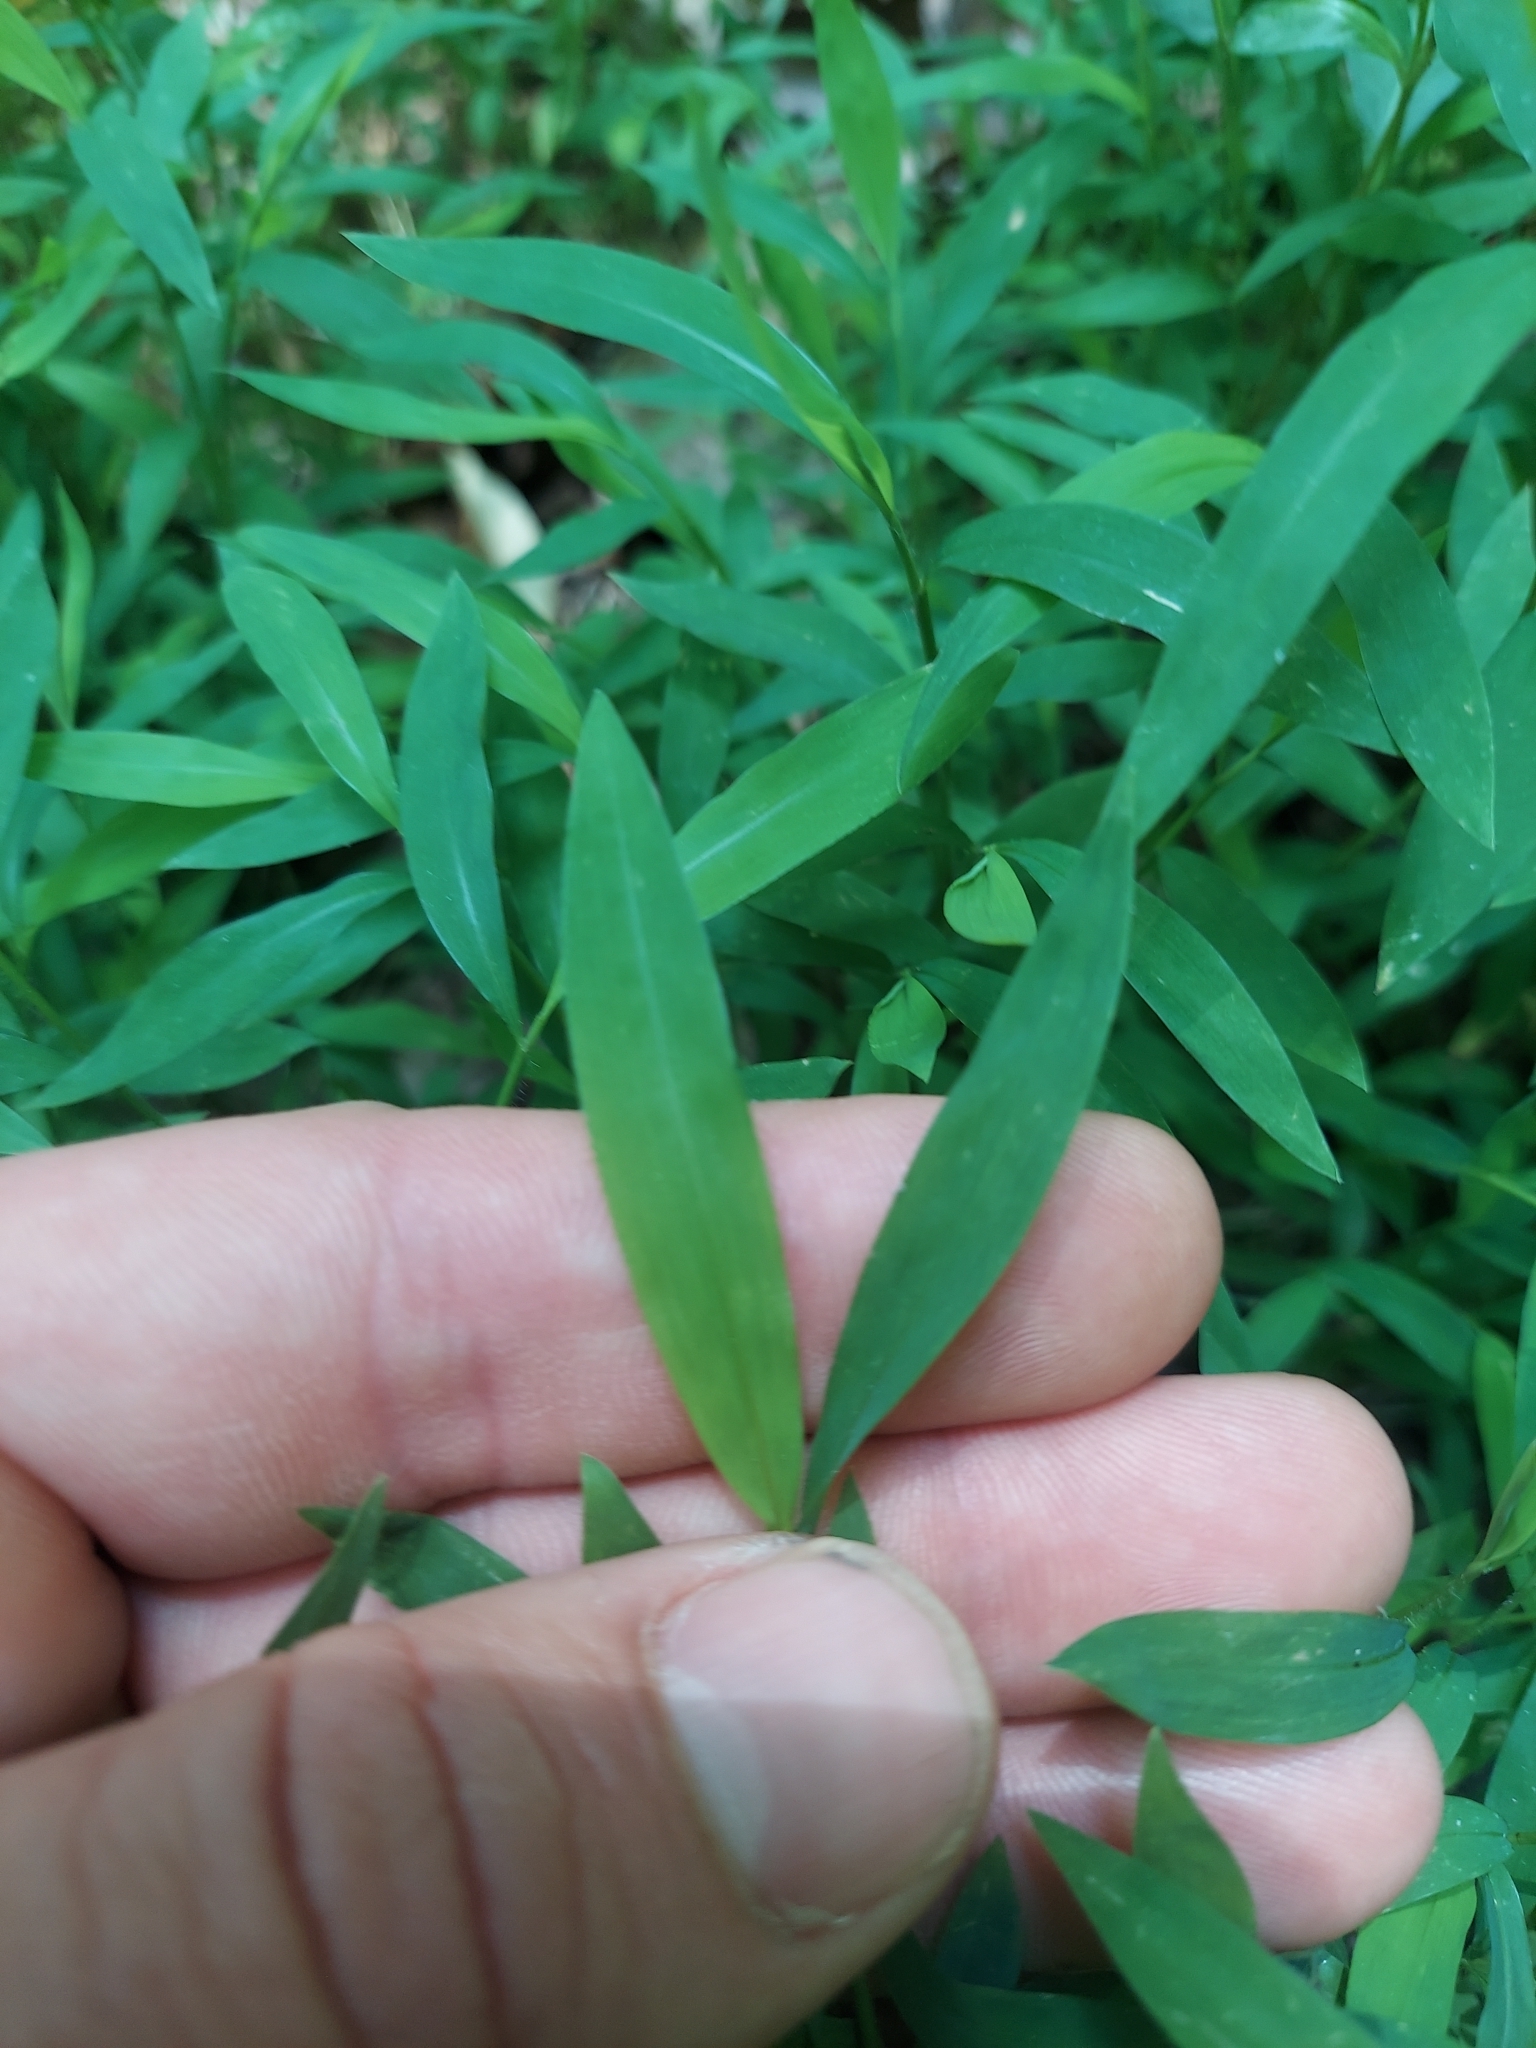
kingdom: Plantae
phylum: Tracheophyta
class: Liliopsida
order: Poales
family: Poaceae
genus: Microstegium
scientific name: Microstegium vimineum
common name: Japanese stiltgrass
